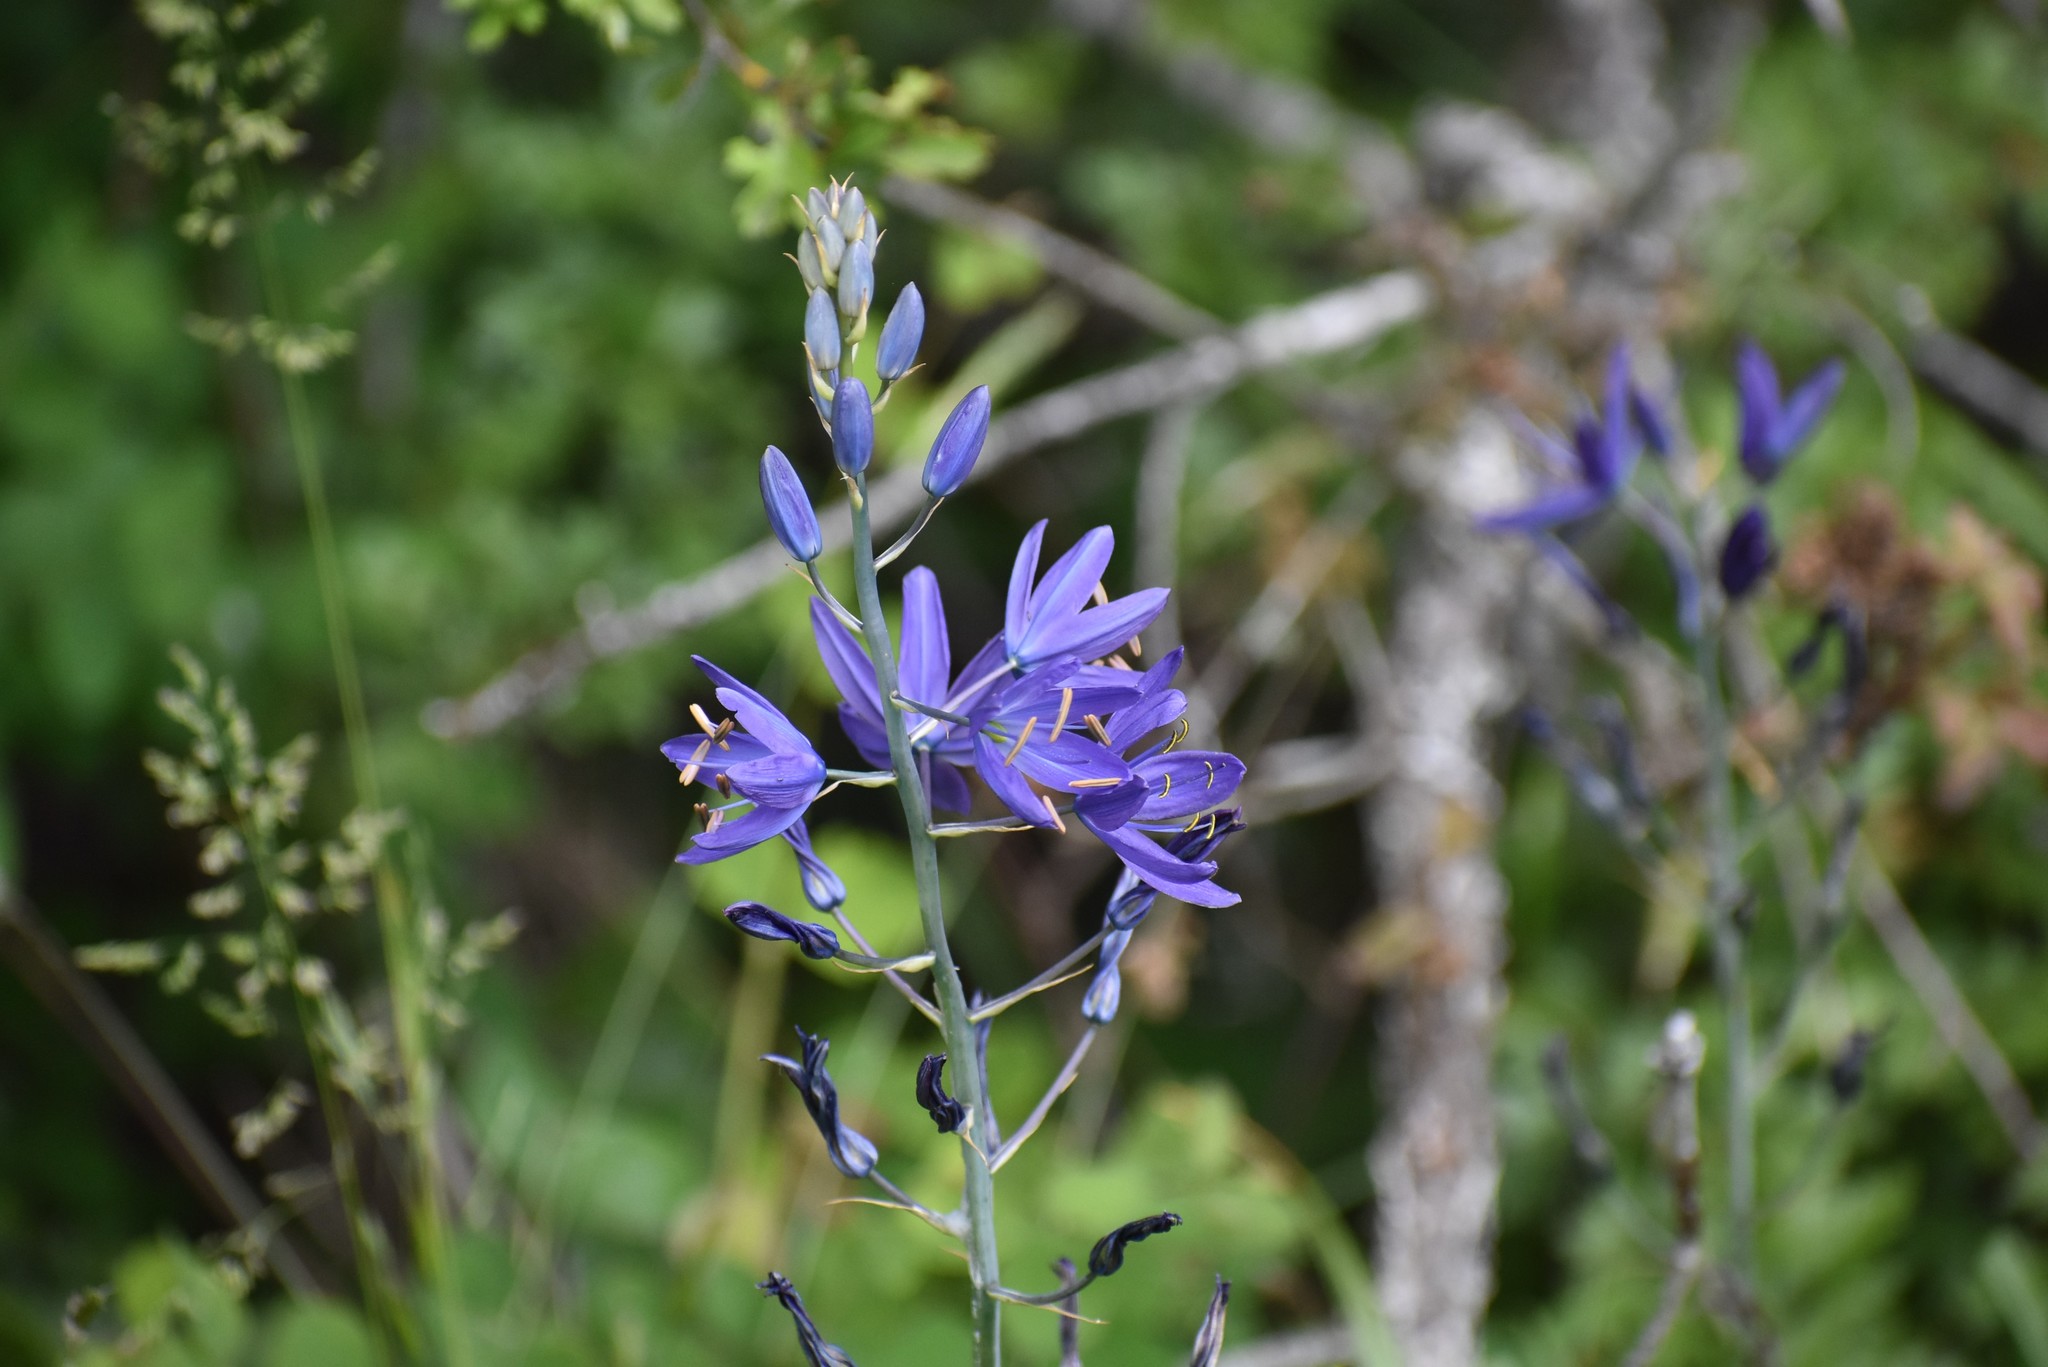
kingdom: Plantae
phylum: Tracheophyta
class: Liliopsida
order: Asparagales
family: Asparagaceae
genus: Camassia
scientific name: Camassia leichtlinii
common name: Leichtlin's camas
